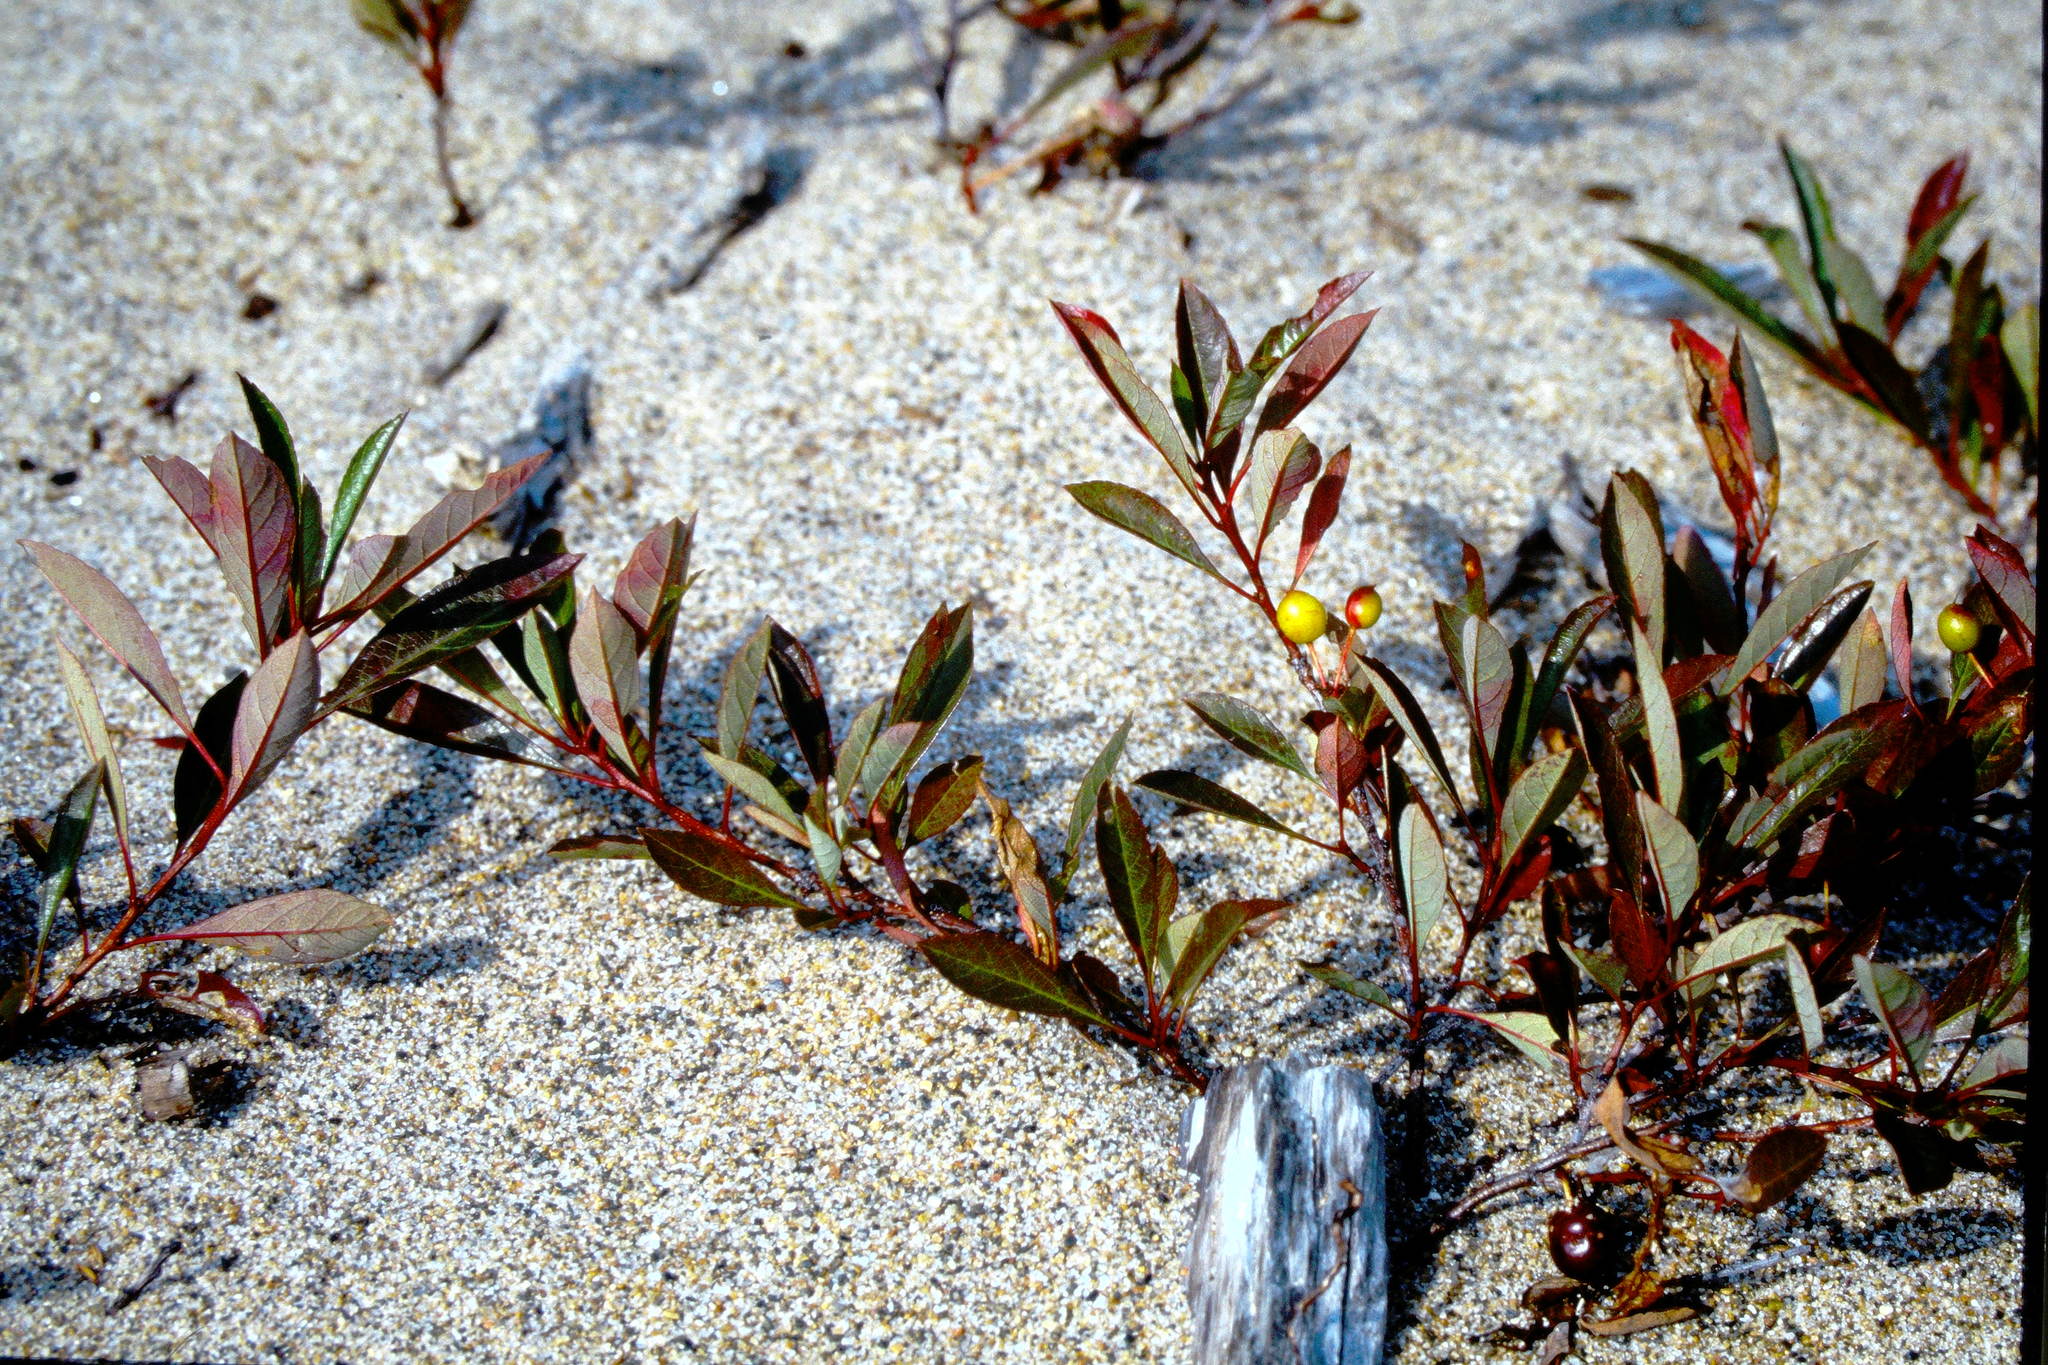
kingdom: Plantae
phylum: Tracheophyta
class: Magnoliopsida
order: Rosales
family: Rosaceae
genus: Prunus
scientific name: Prunus pumila
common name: Dwarf cherry
